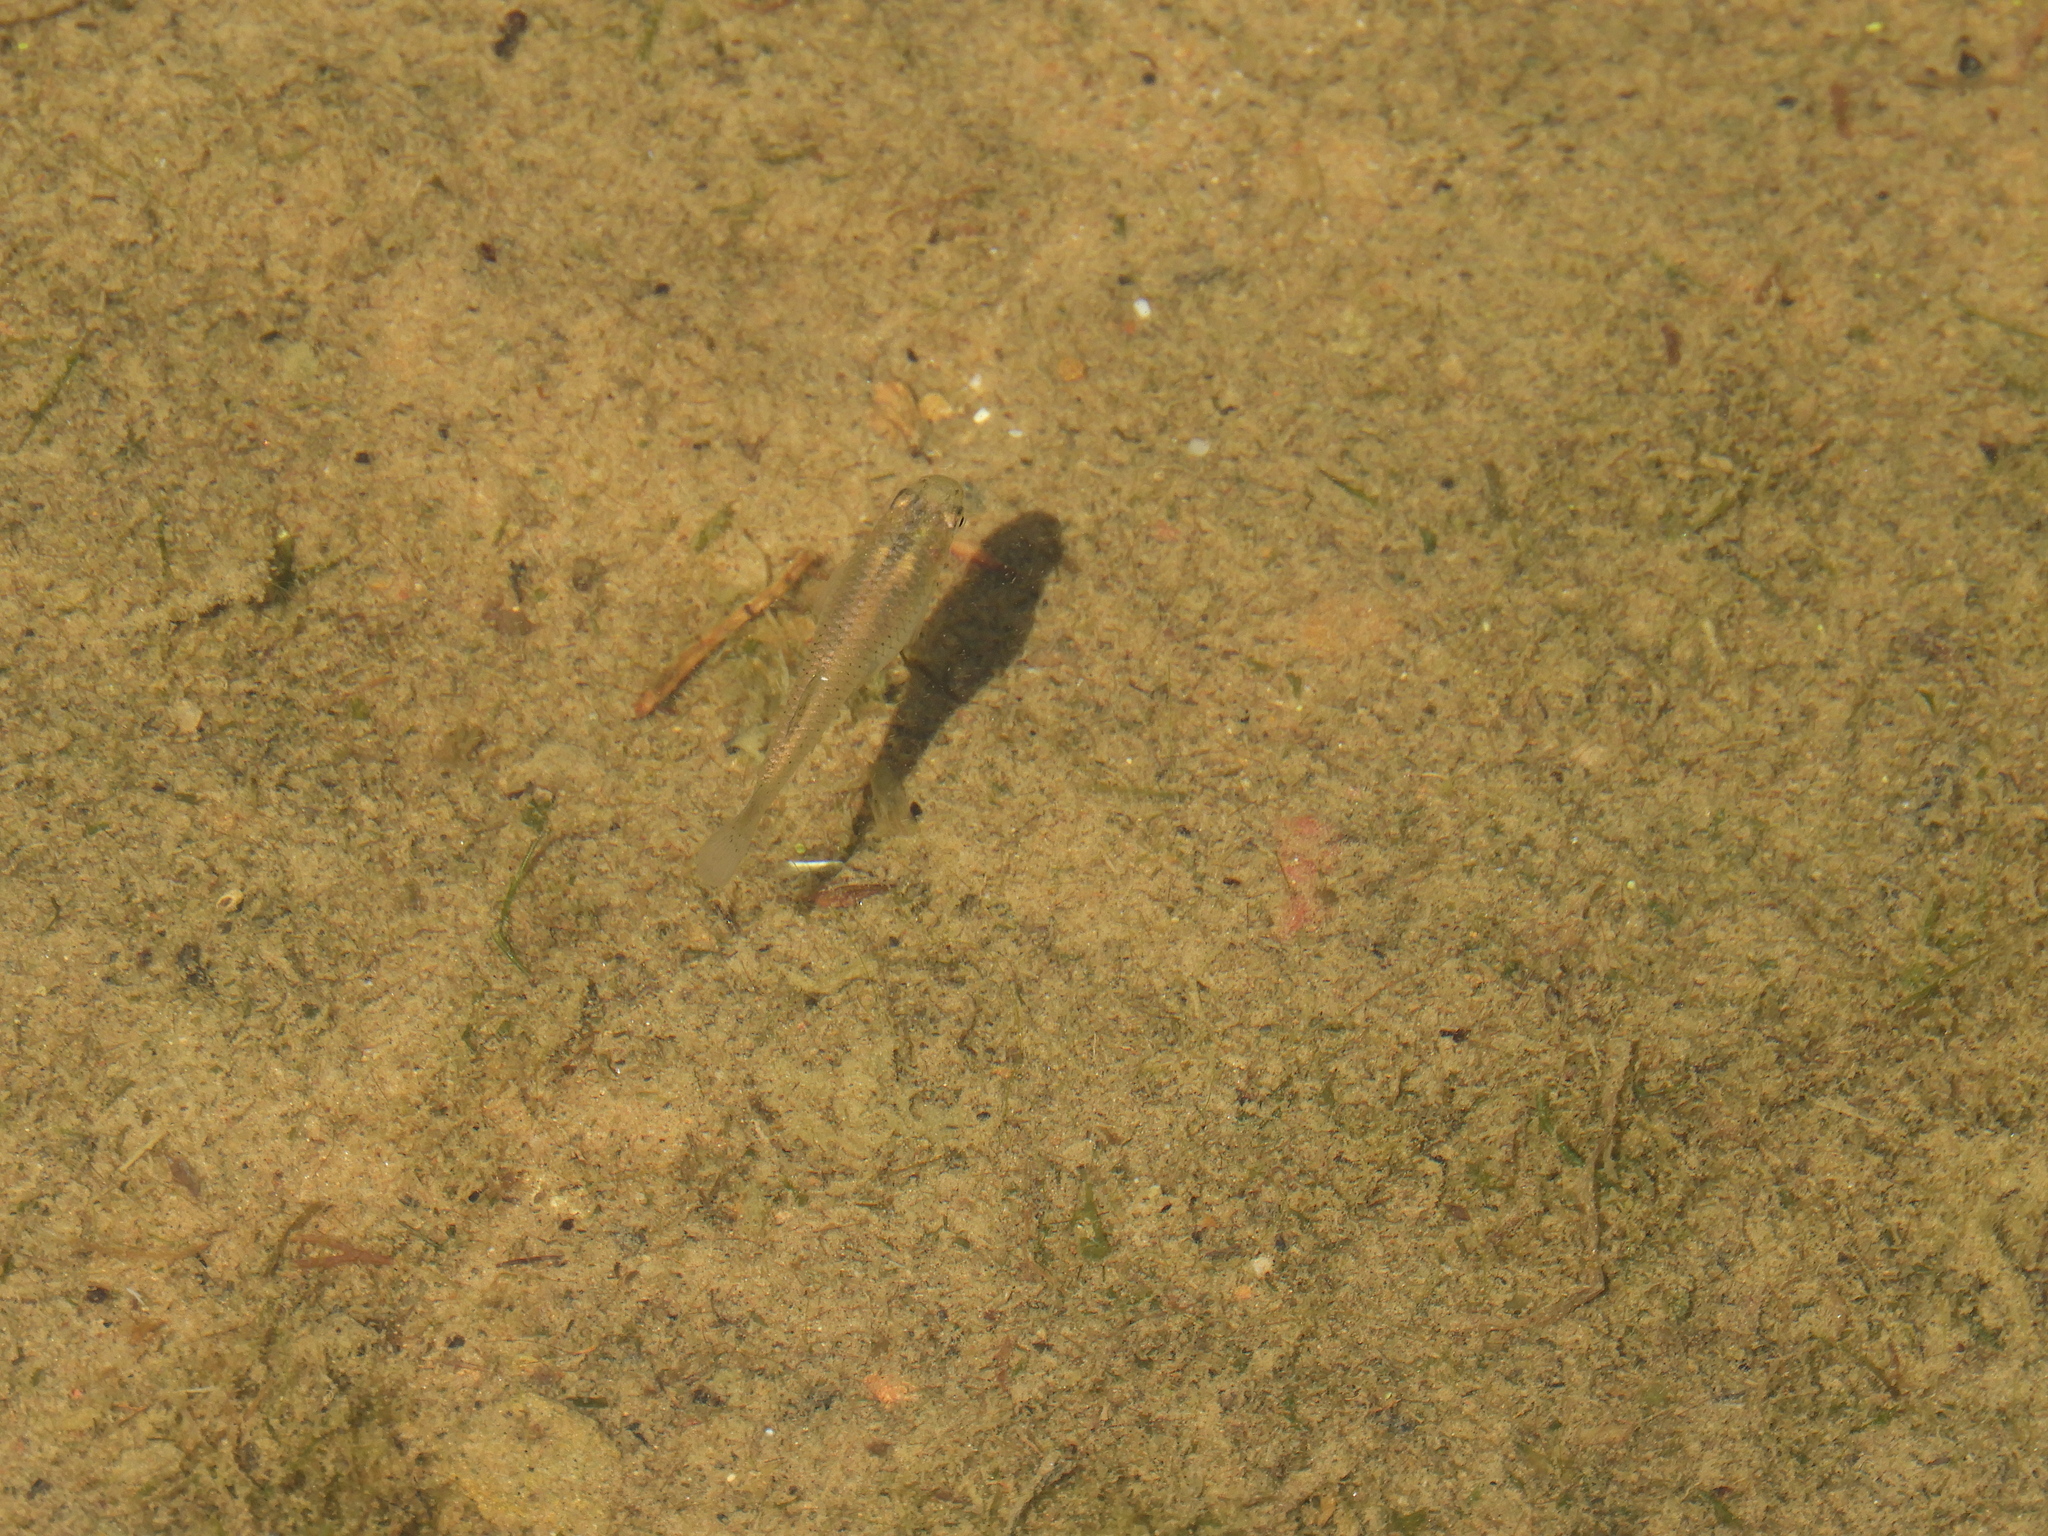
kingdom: Animalia
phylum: Chordata
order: Cyprinodontiformes
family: Poeciliidae
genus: Gambusia
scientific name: Gambusia affinis
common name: Mosquitofish
